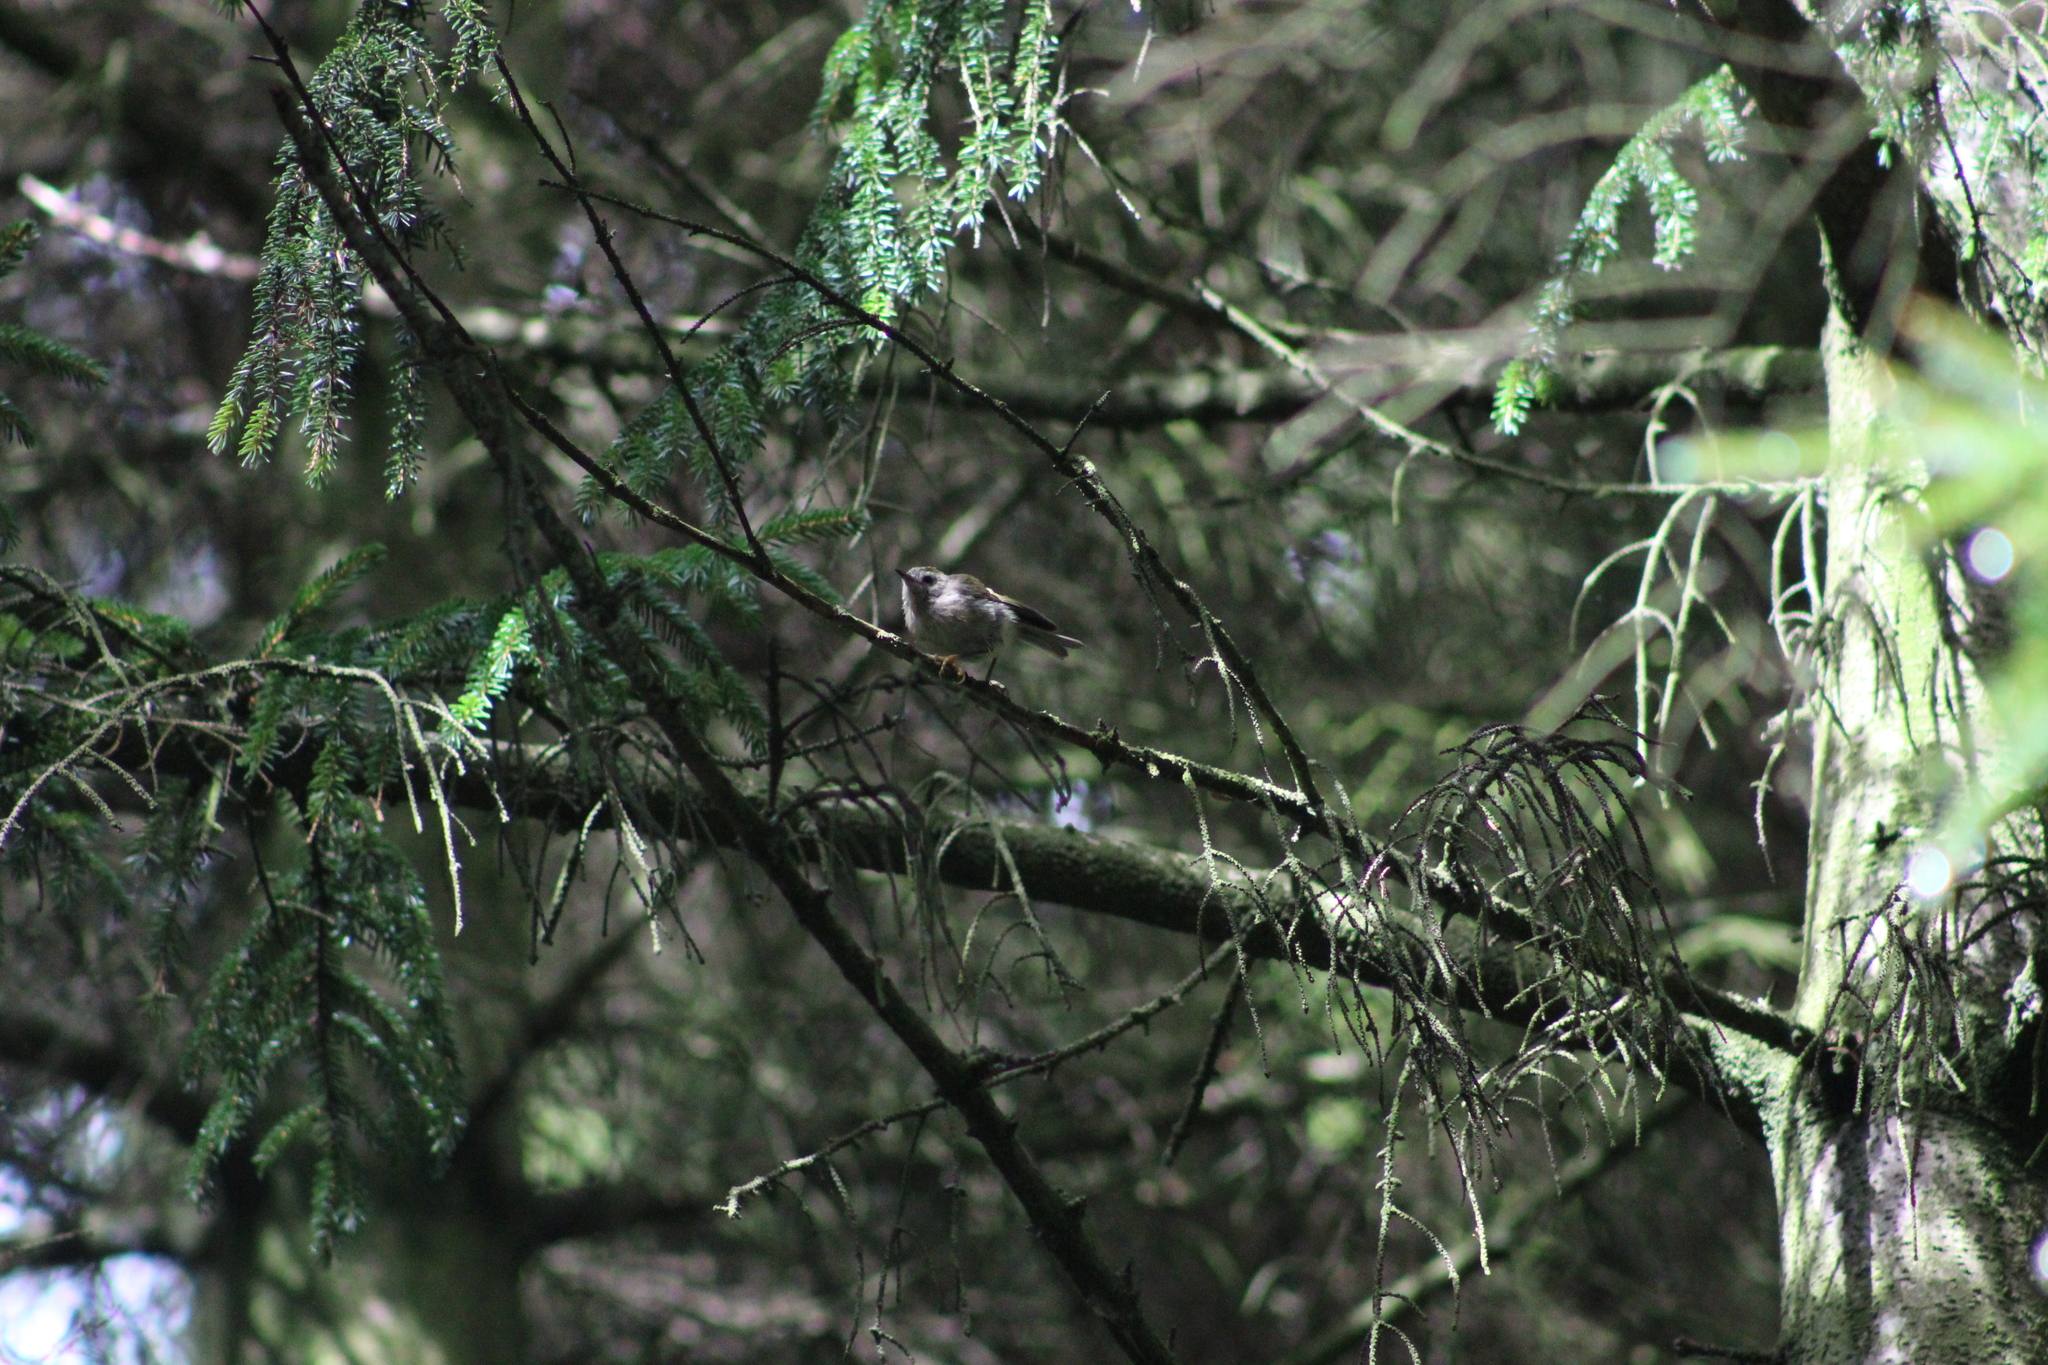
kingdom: Animalia
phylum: Chordata
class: Aves
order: Passeriformes
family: Regulidae
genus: Regulus
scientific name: Regulus regulus
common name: Goldcrest
